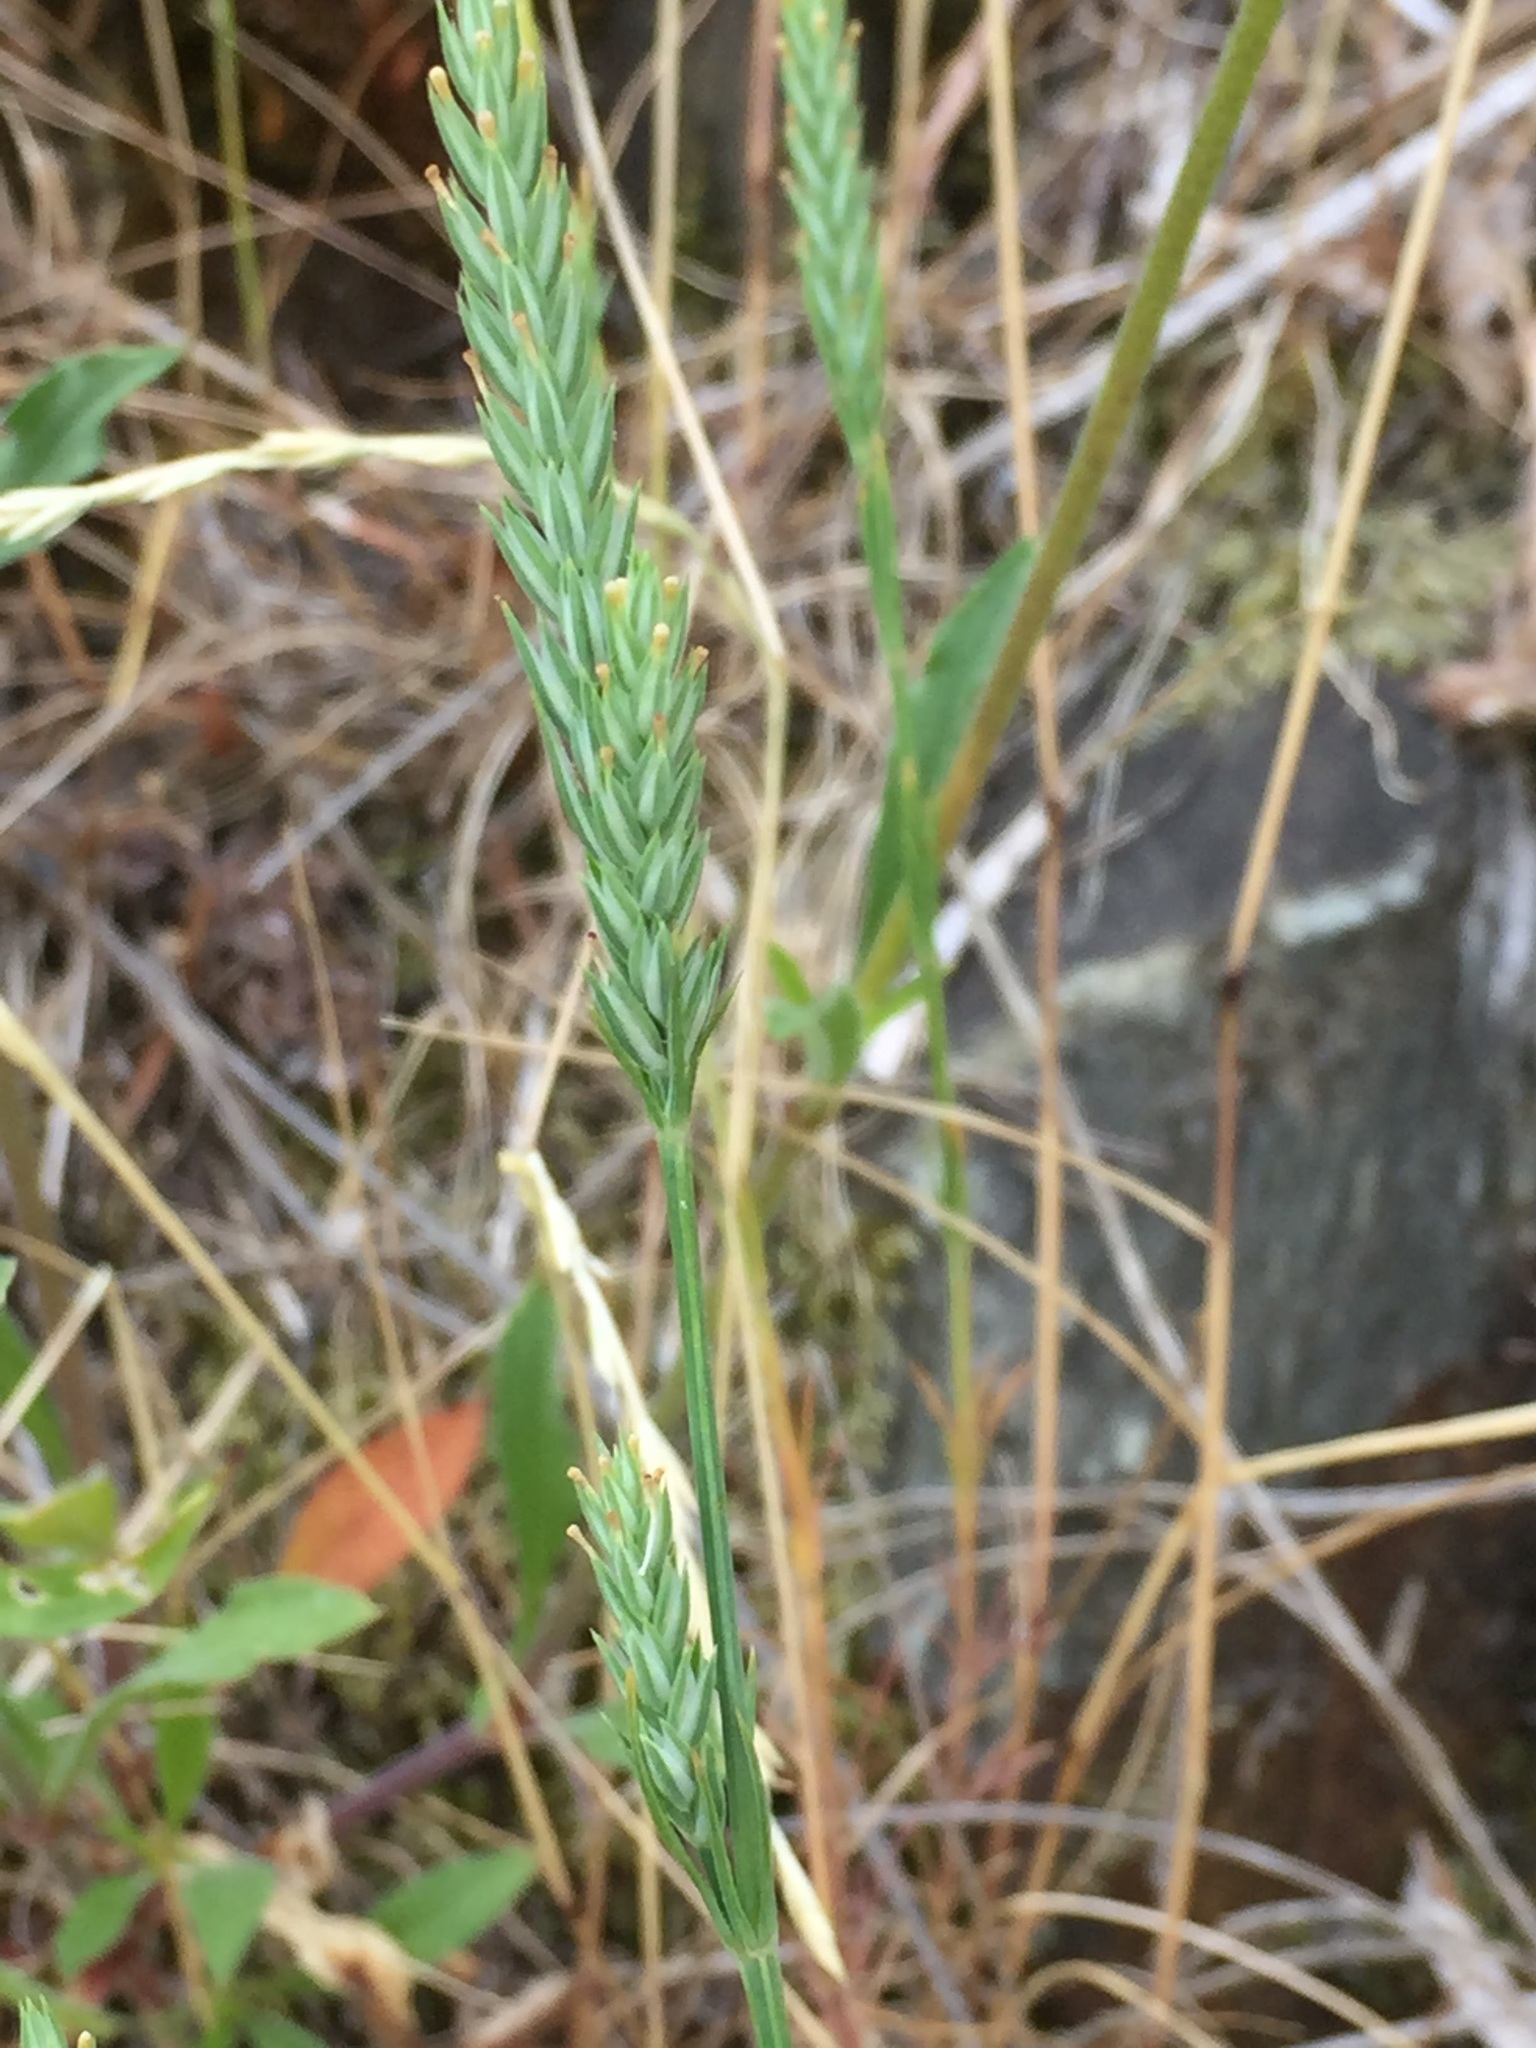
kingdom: Plantae
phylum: Tracheophyta
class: Magnoliopsida
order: Gentianales
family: Rubiaceae
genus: Crucianella
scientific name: Crucianella angustifolia
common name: Narrowleaf crucianella
